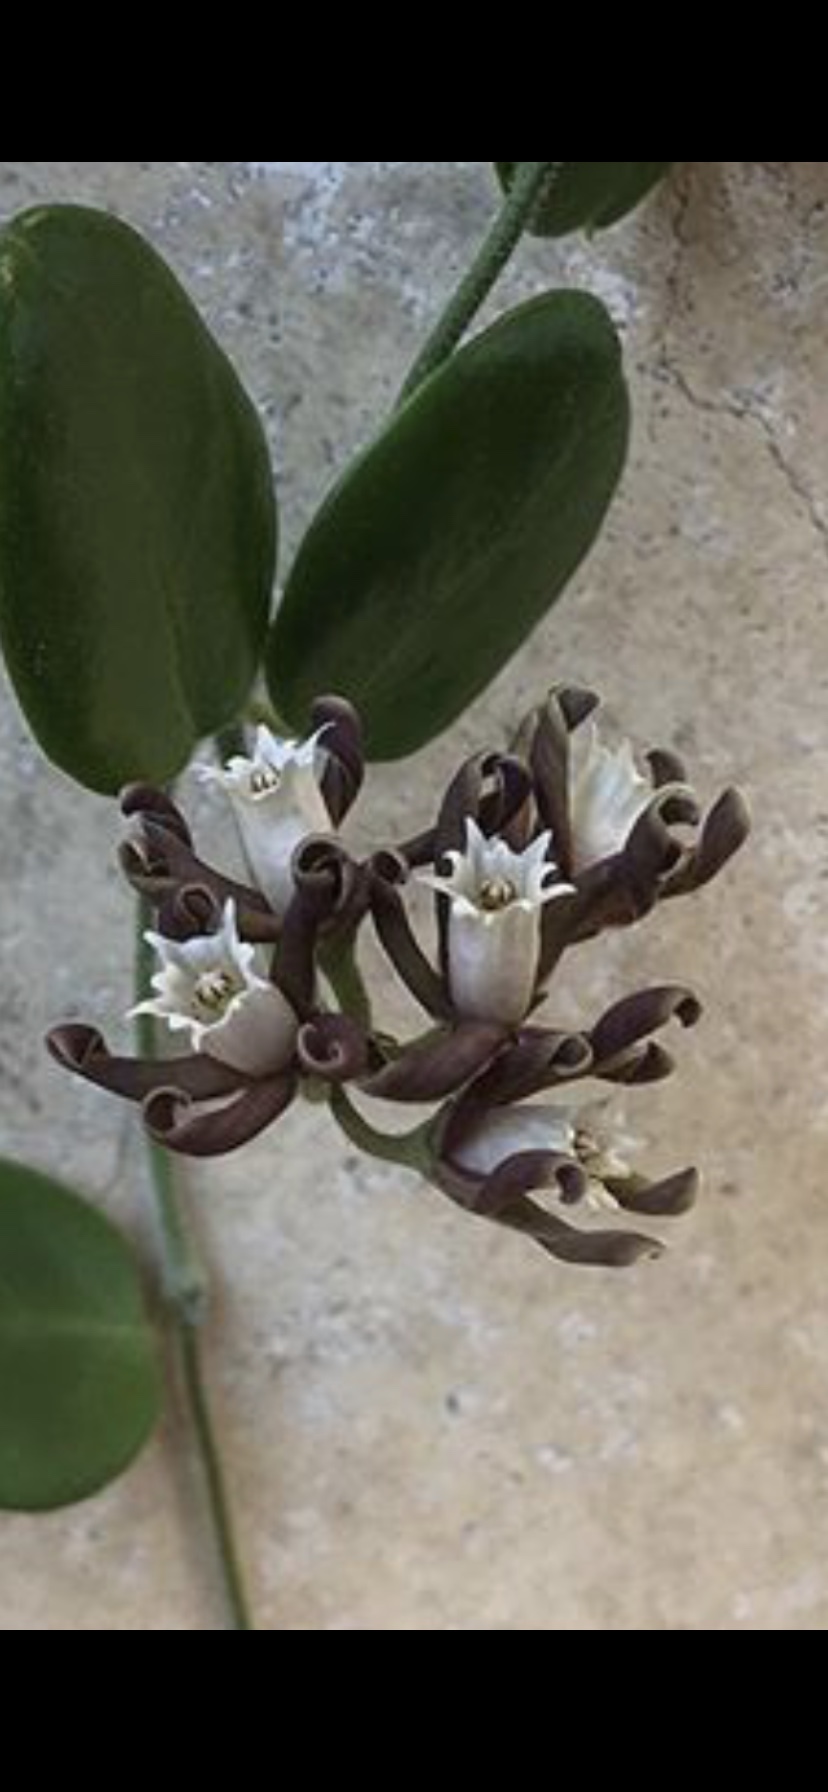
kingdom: Plantae
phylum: Tracheophyta
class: Magnoliopsida
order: Gentianales
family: Apocynaceae
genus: Cynanchum
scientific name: Cynanchum africanum
